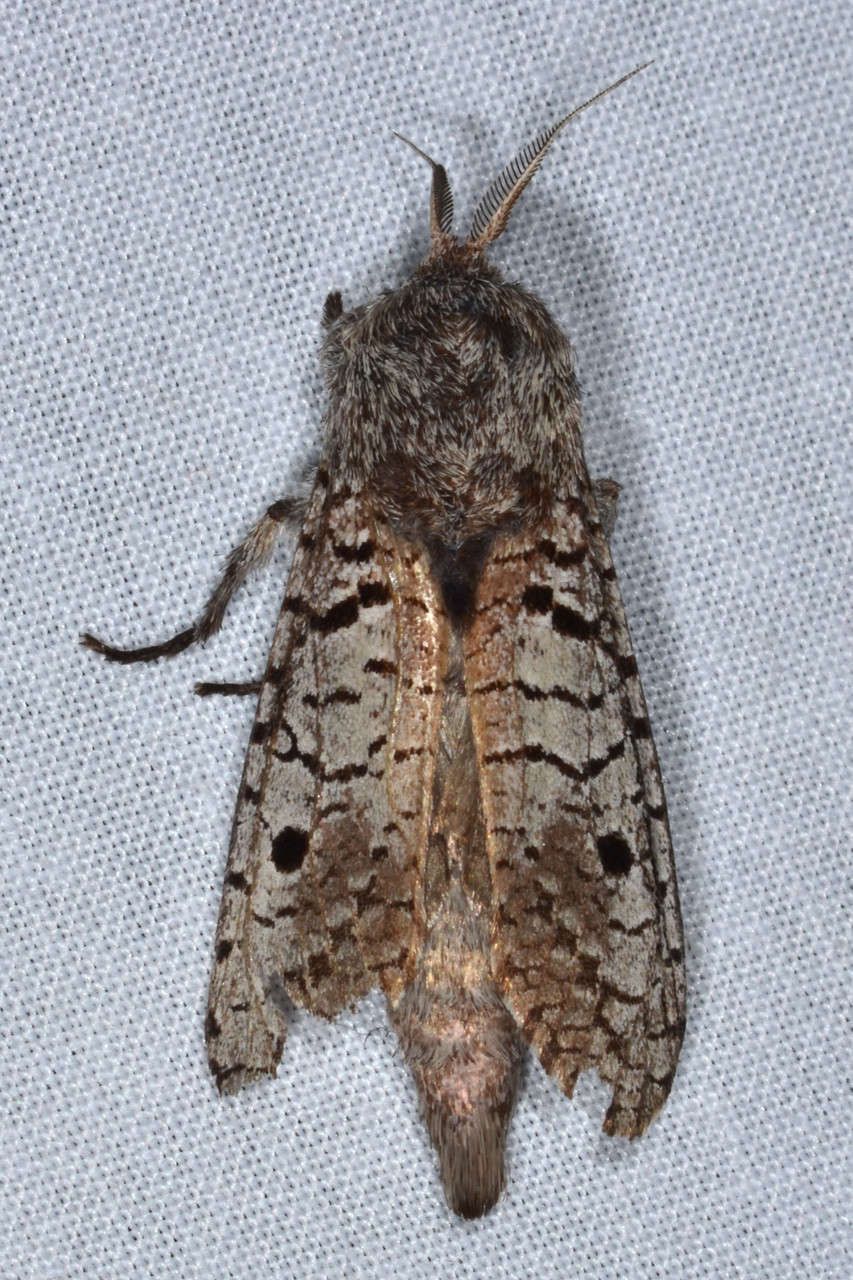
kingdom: Animalia
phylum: Arthropoda
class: Insecta
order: Lepidoptera
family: Cossidae
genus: Sympycnodes
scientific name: Sympycnodes
